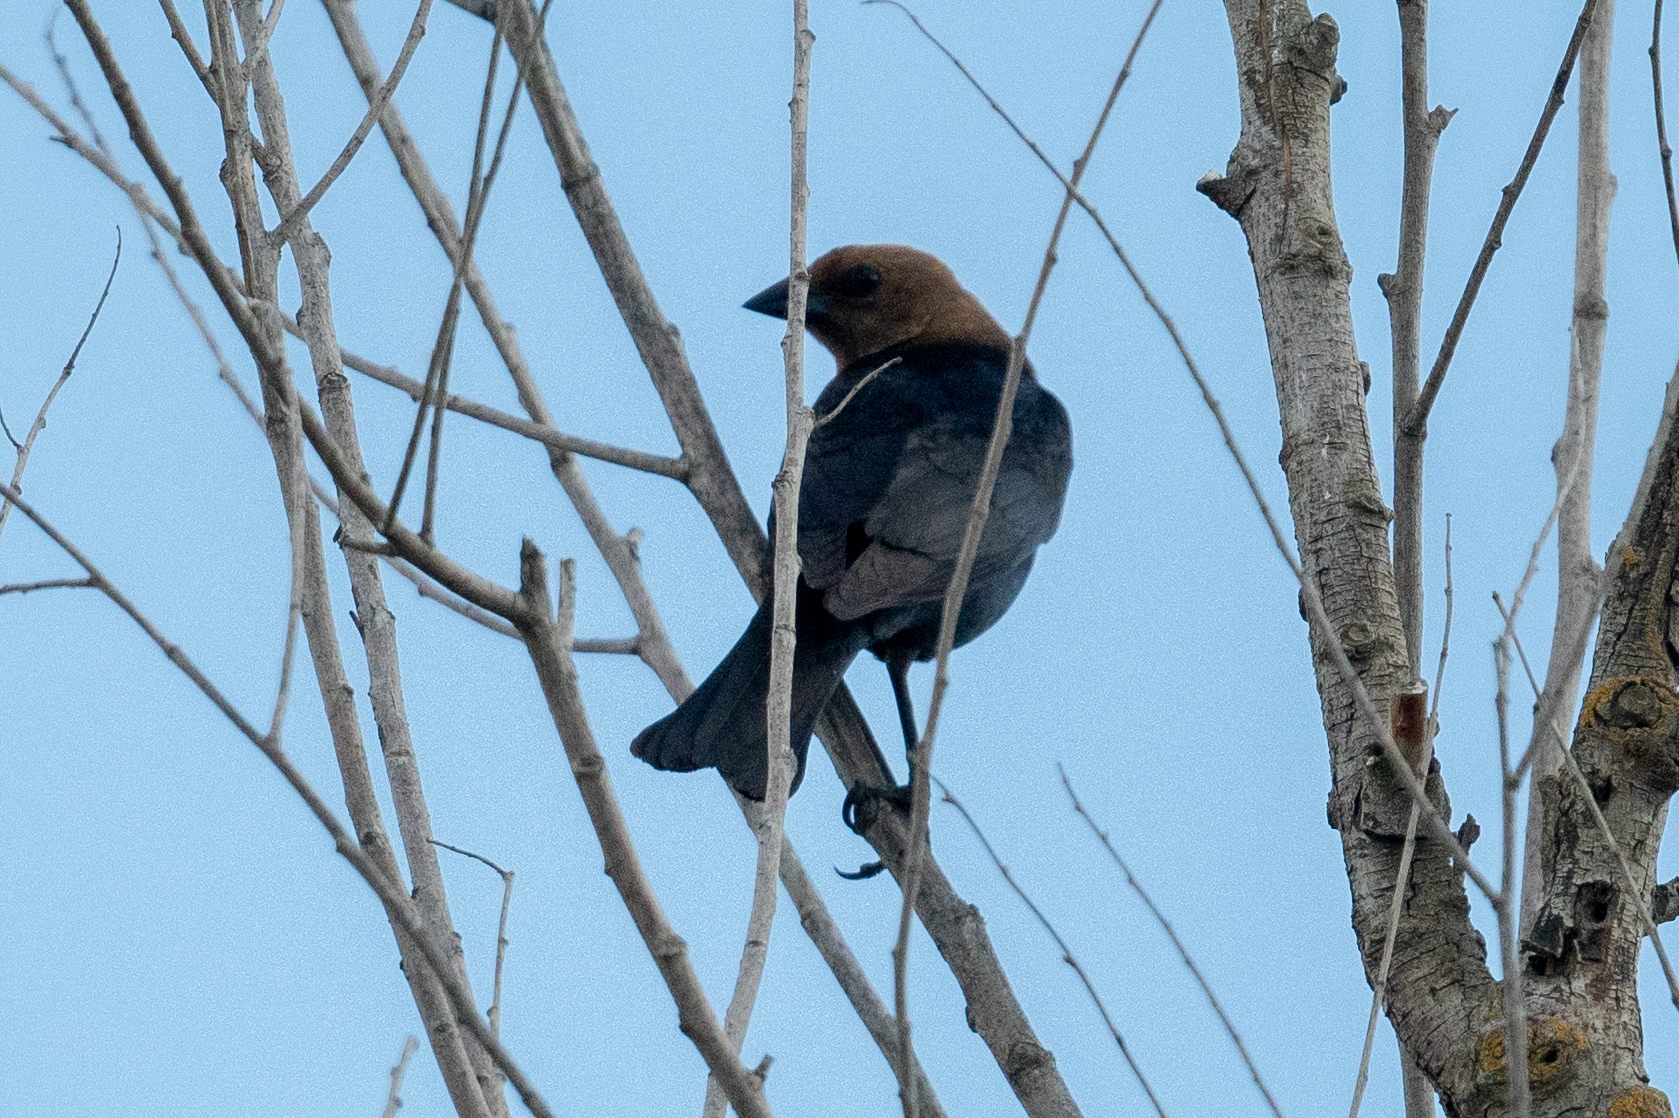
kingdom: Animalia
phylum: Chordata
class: Aves
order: Passeriformes
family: Icteridae
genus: Molothrus
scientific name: Molothrus ater
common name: Brown-headed cowbird
